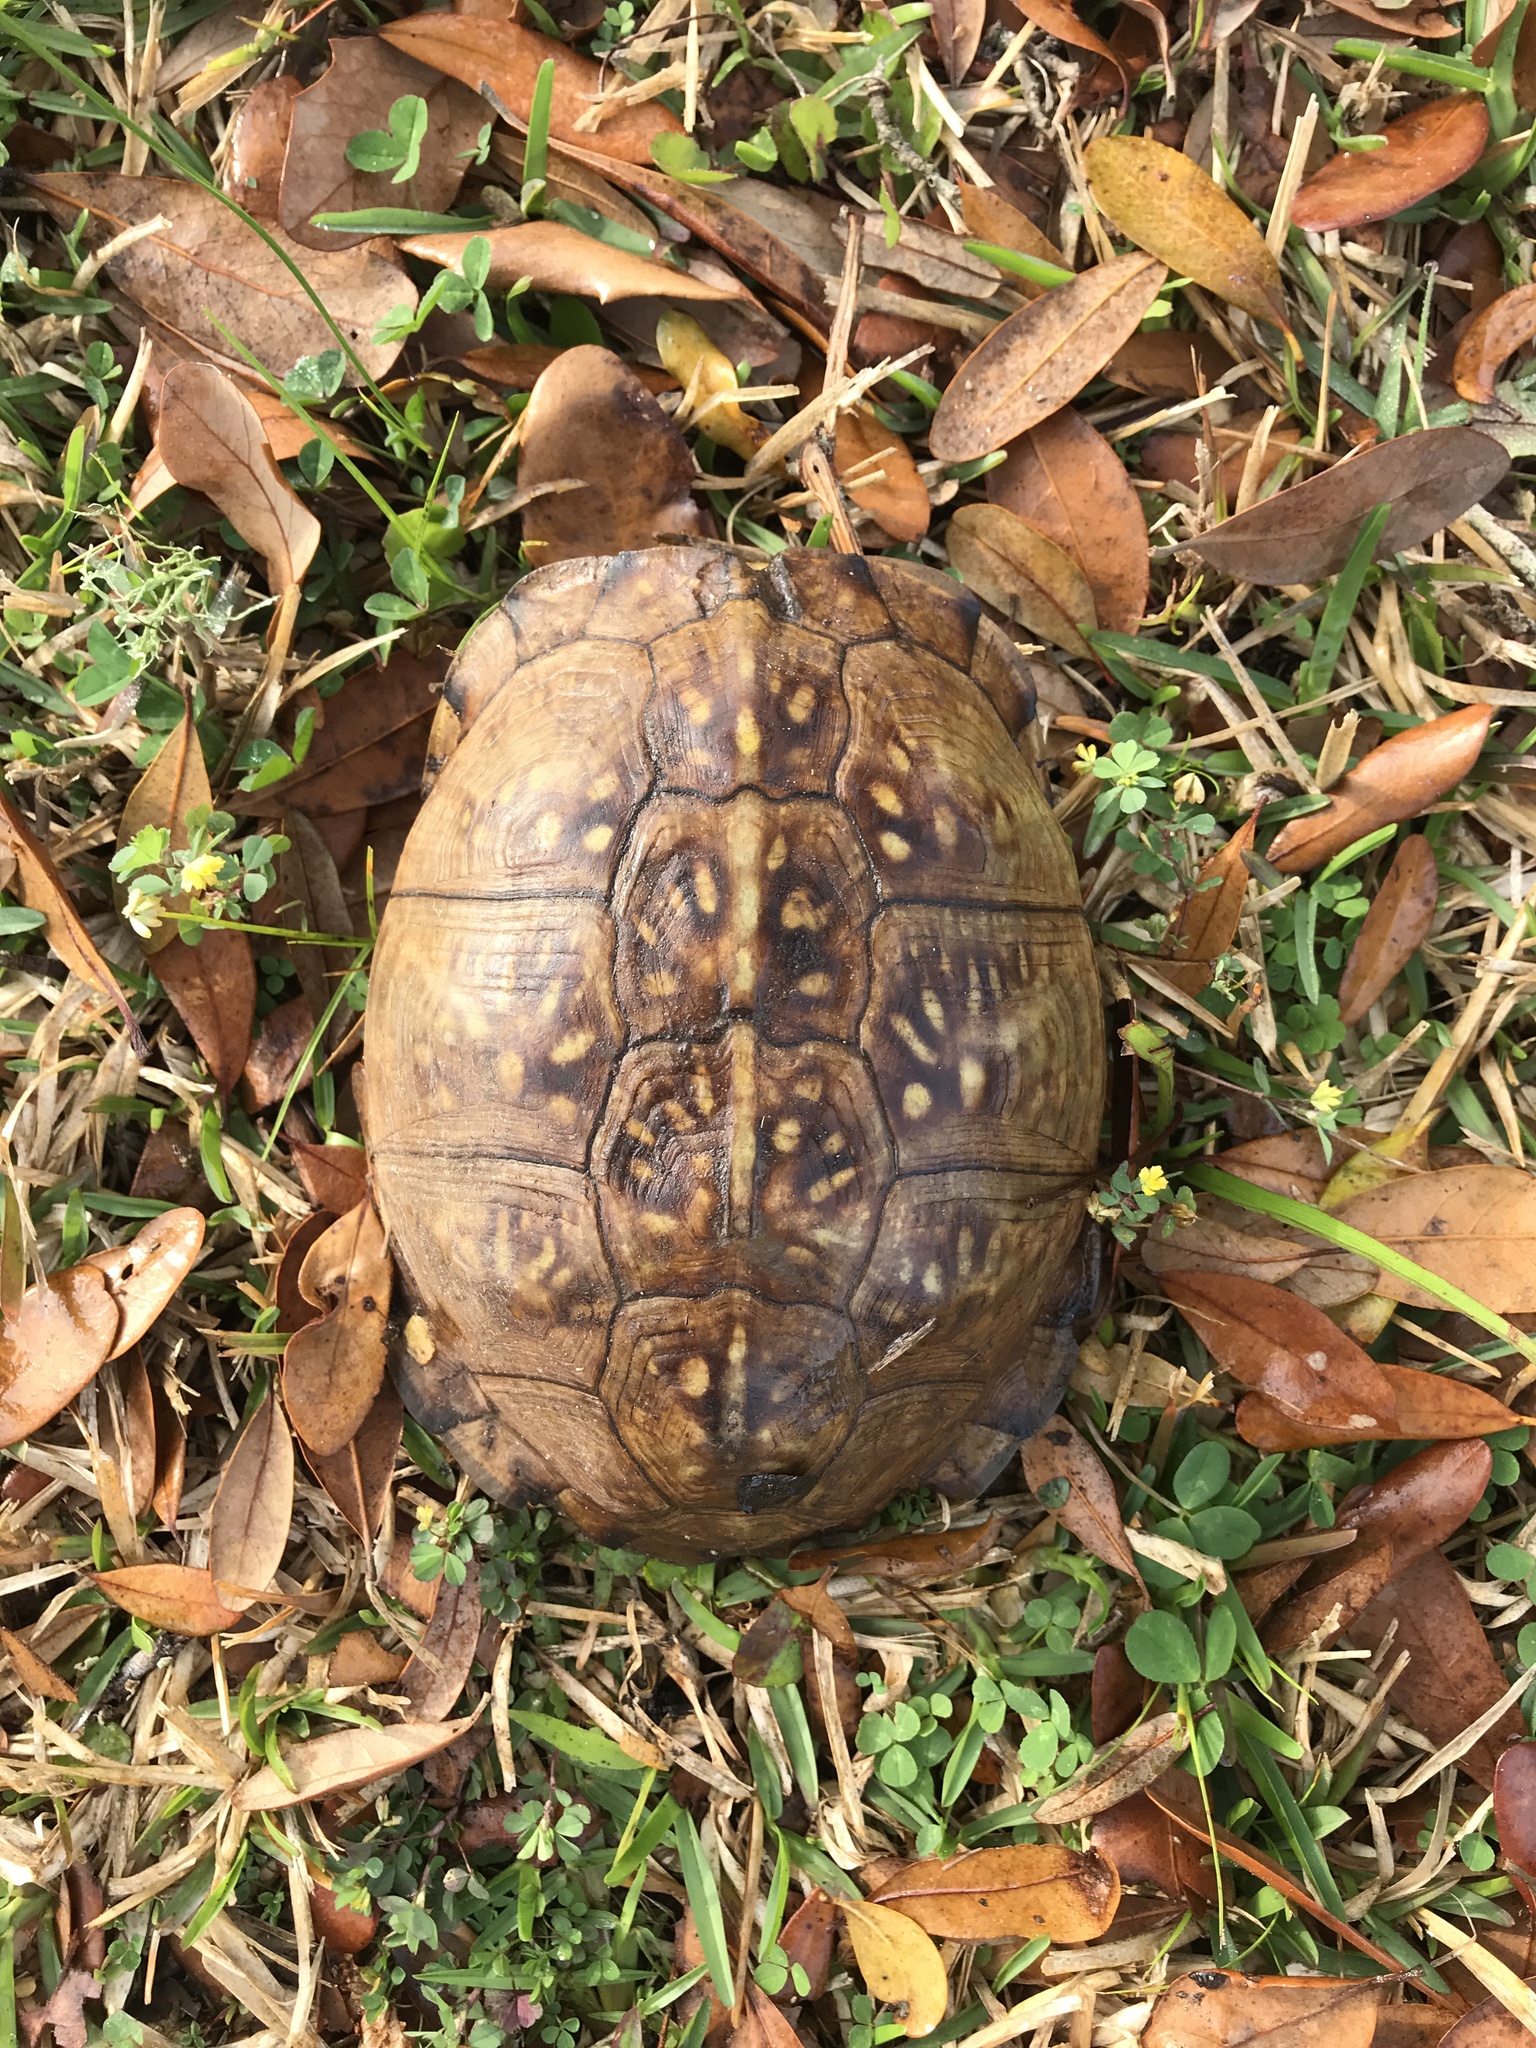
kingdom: Animalia
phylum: Chordata
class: Testudines
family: Emydidae
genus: Terrapene
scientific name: Terrapene carolina
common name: Common box turtle
